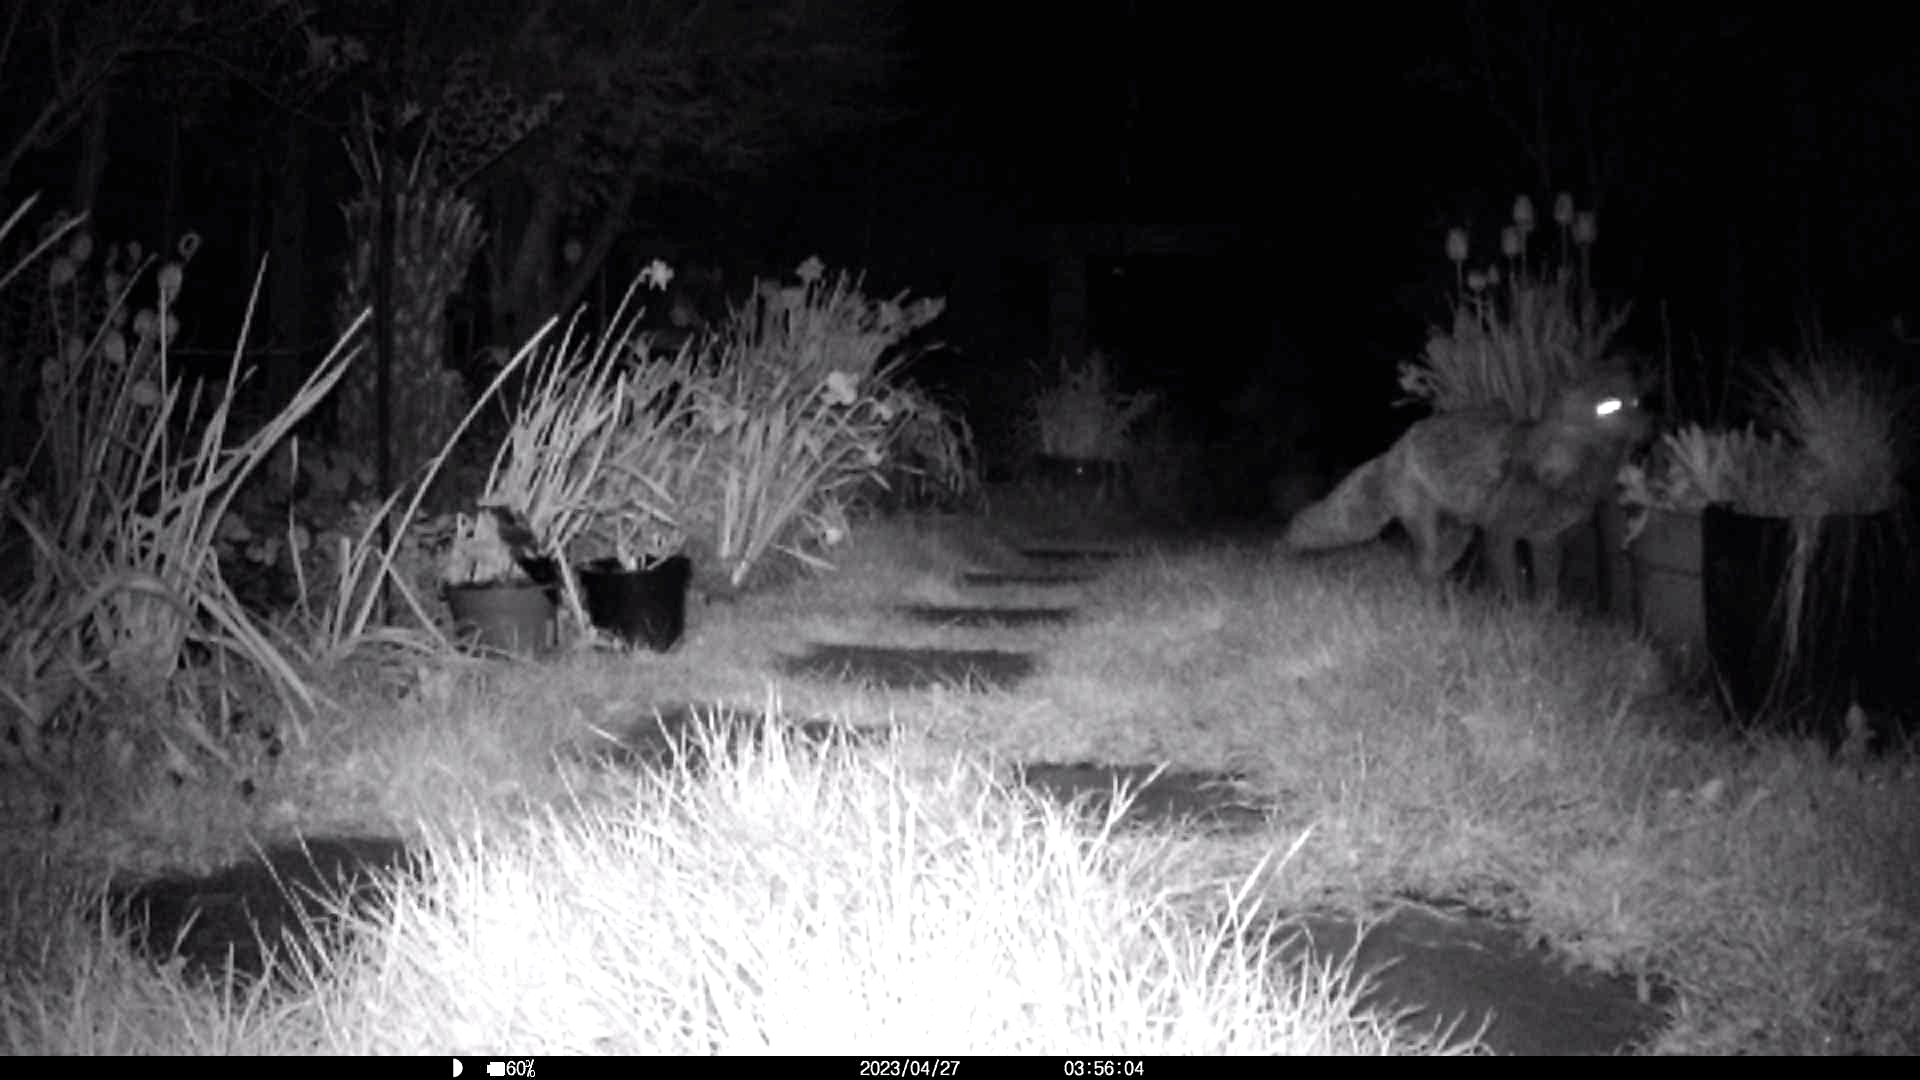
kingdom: Animalia
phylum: Chordata
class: Mammalia
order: Carnivora
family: Canidae
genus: Vulpes
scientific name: Vulpes vulpes
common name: Red fox
